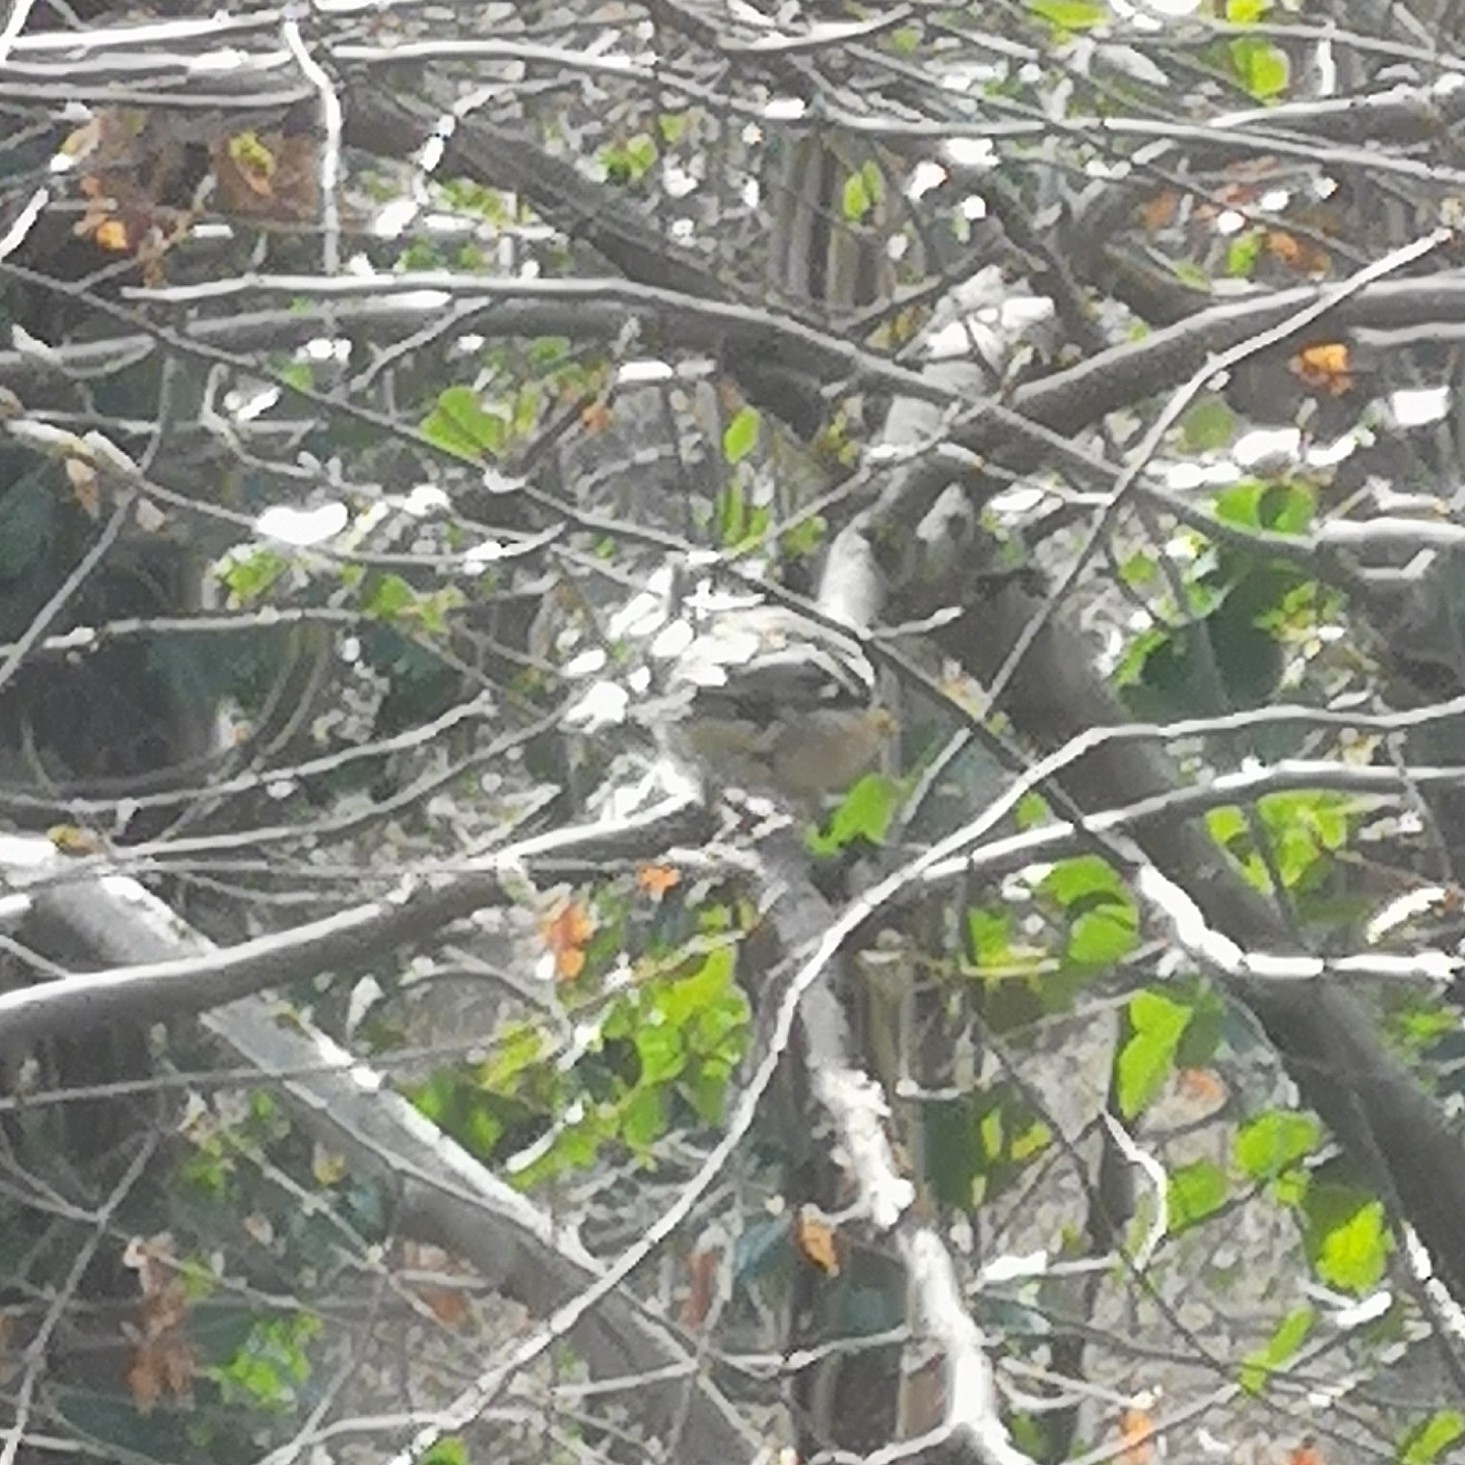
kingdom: Animalia
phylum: Chordata
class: Aves
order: Passeriformes
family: Fringillidae
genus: Fringilla
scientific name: Fringilla coelebs
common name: Common chaffinch
